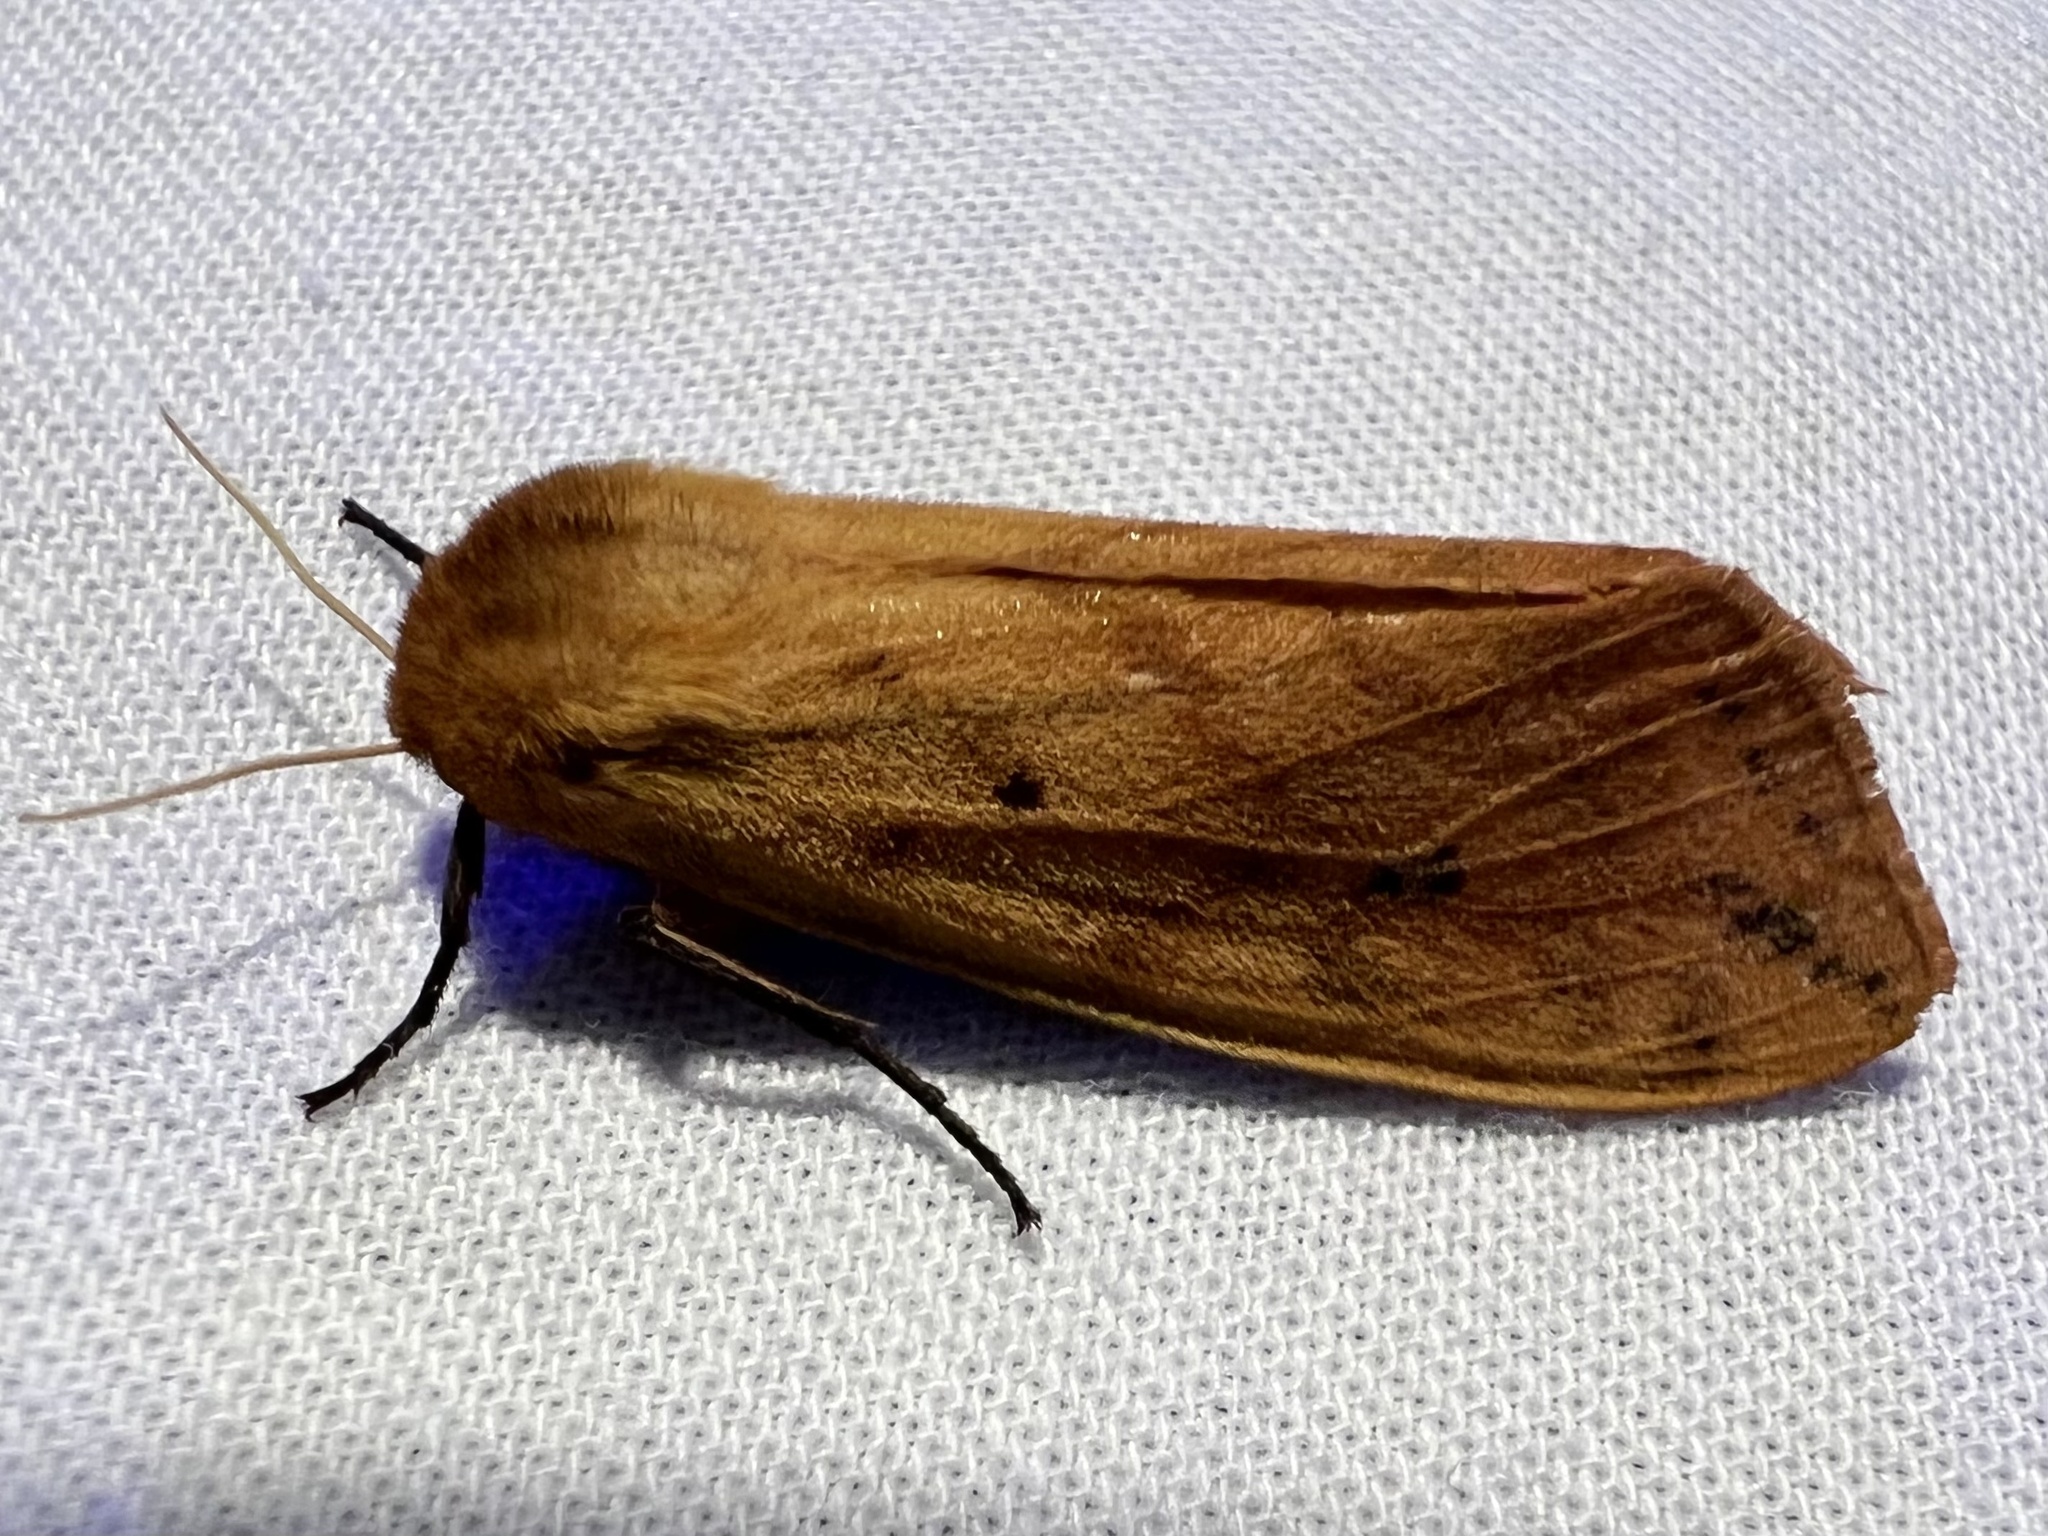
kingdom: Animalia
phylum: Arthropoda
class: Insecta
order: Lepidoptera
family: Erebidae
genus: Pyrrharctia
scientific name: Pyrrharctia isabella
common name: Isabella tiger moth
